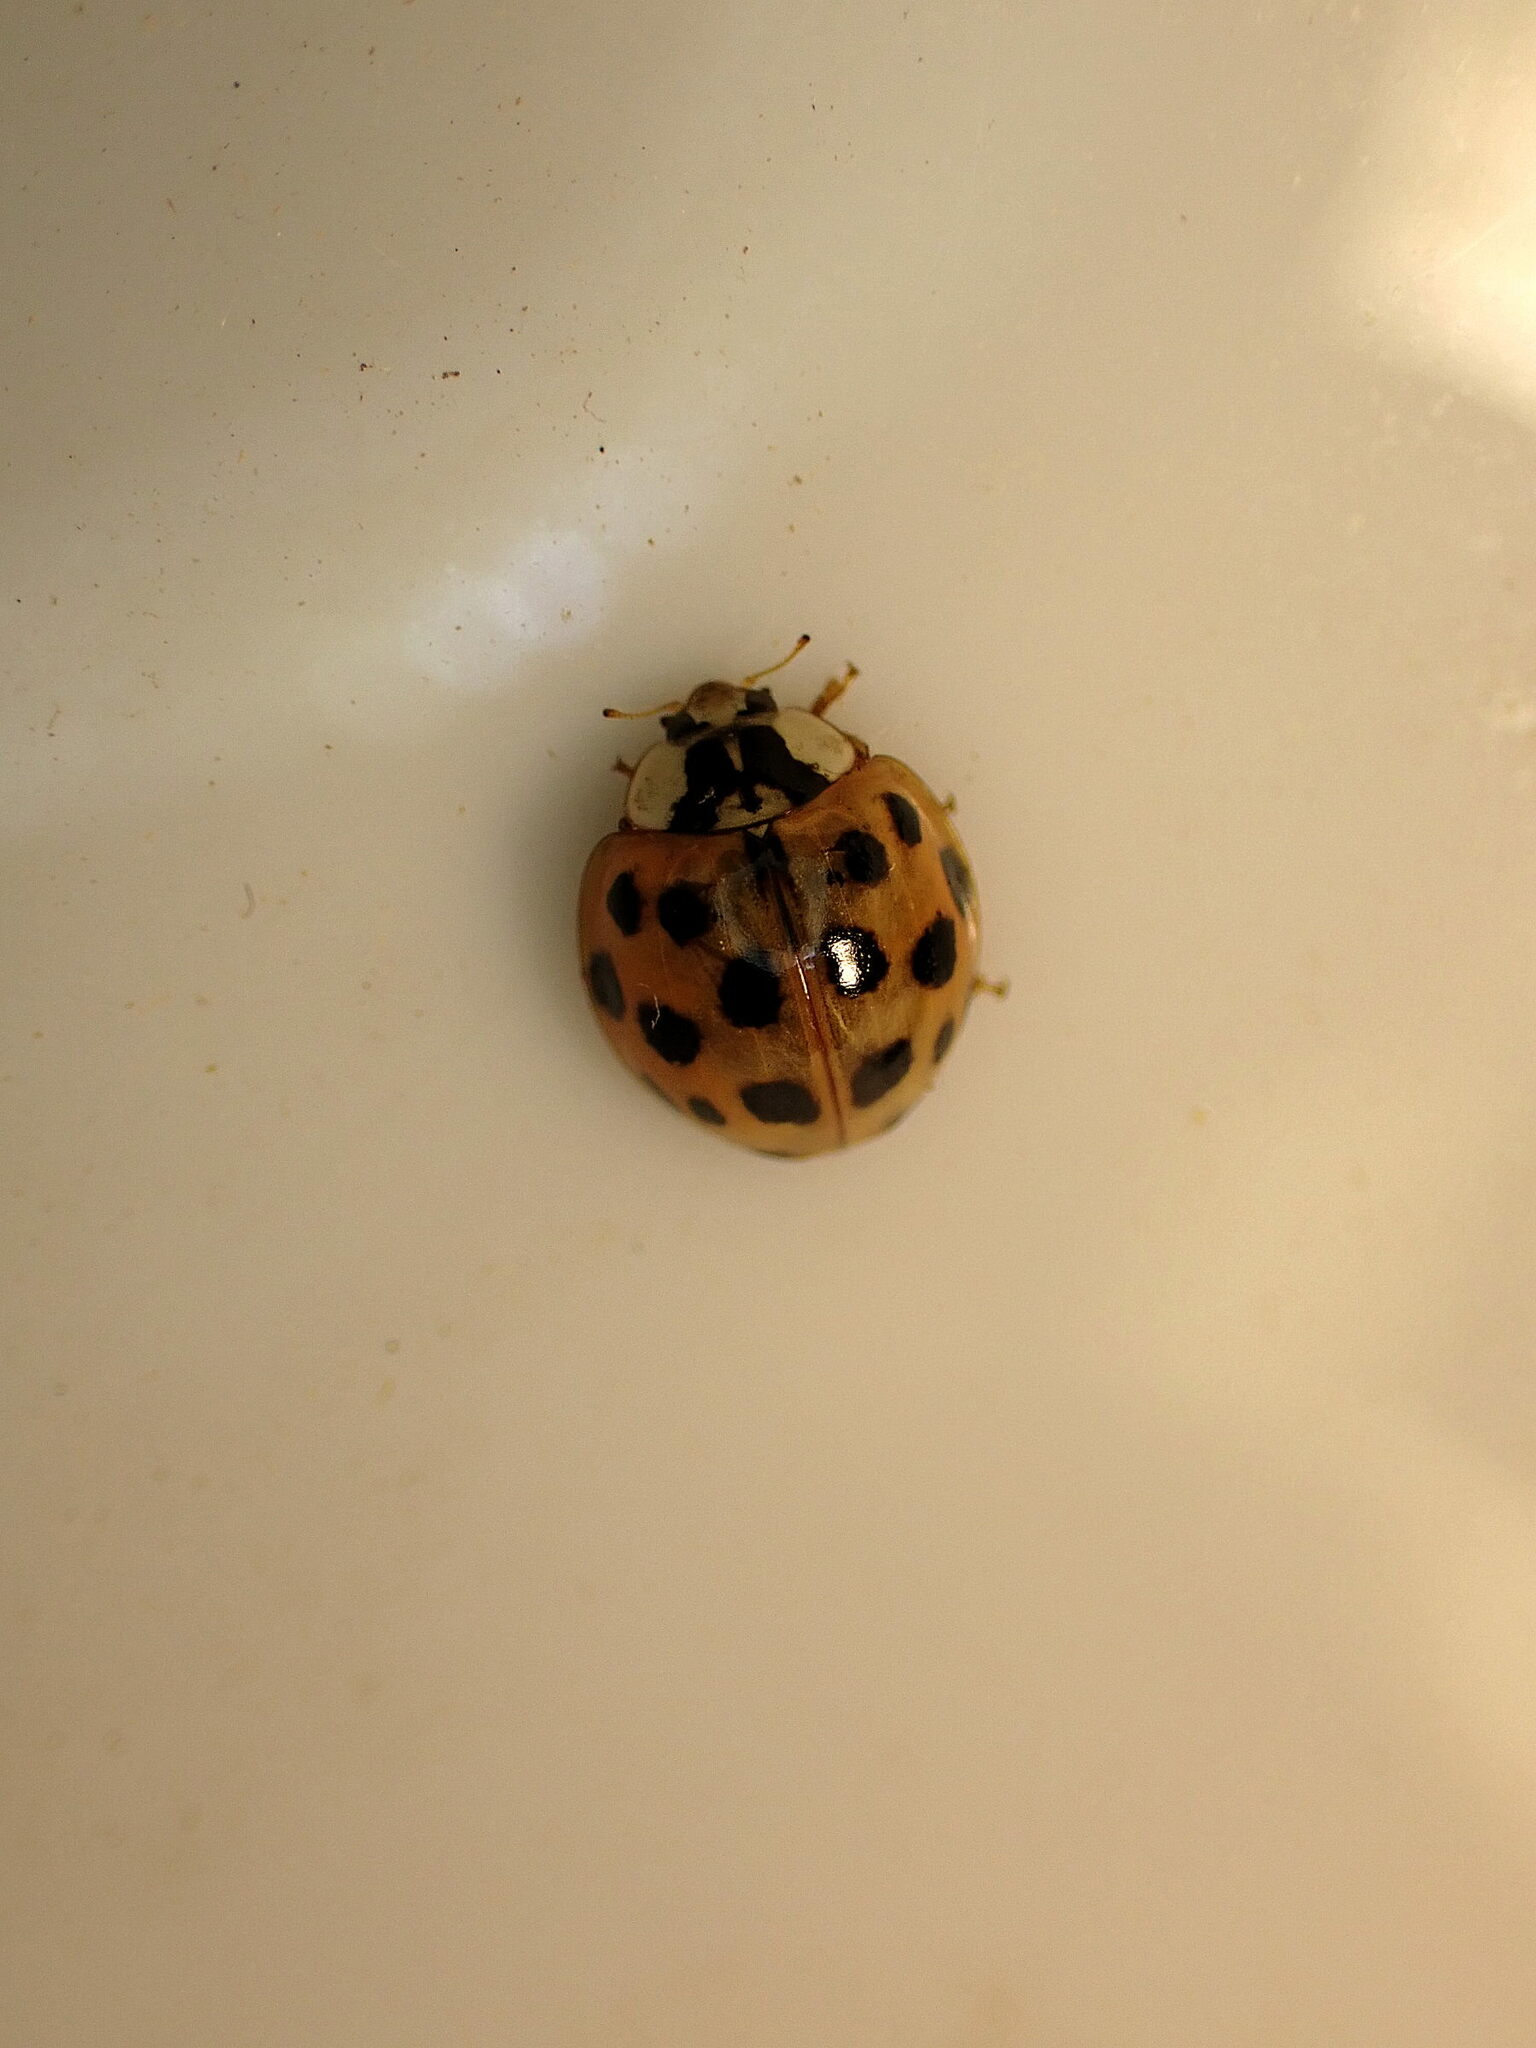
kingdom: Animalia
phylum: Arthropoda
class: Insecta
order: Coleoptera
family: Coccinellidae
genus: Harmonia
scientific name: Harmonia axyridis
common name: Harlequin ladybird
